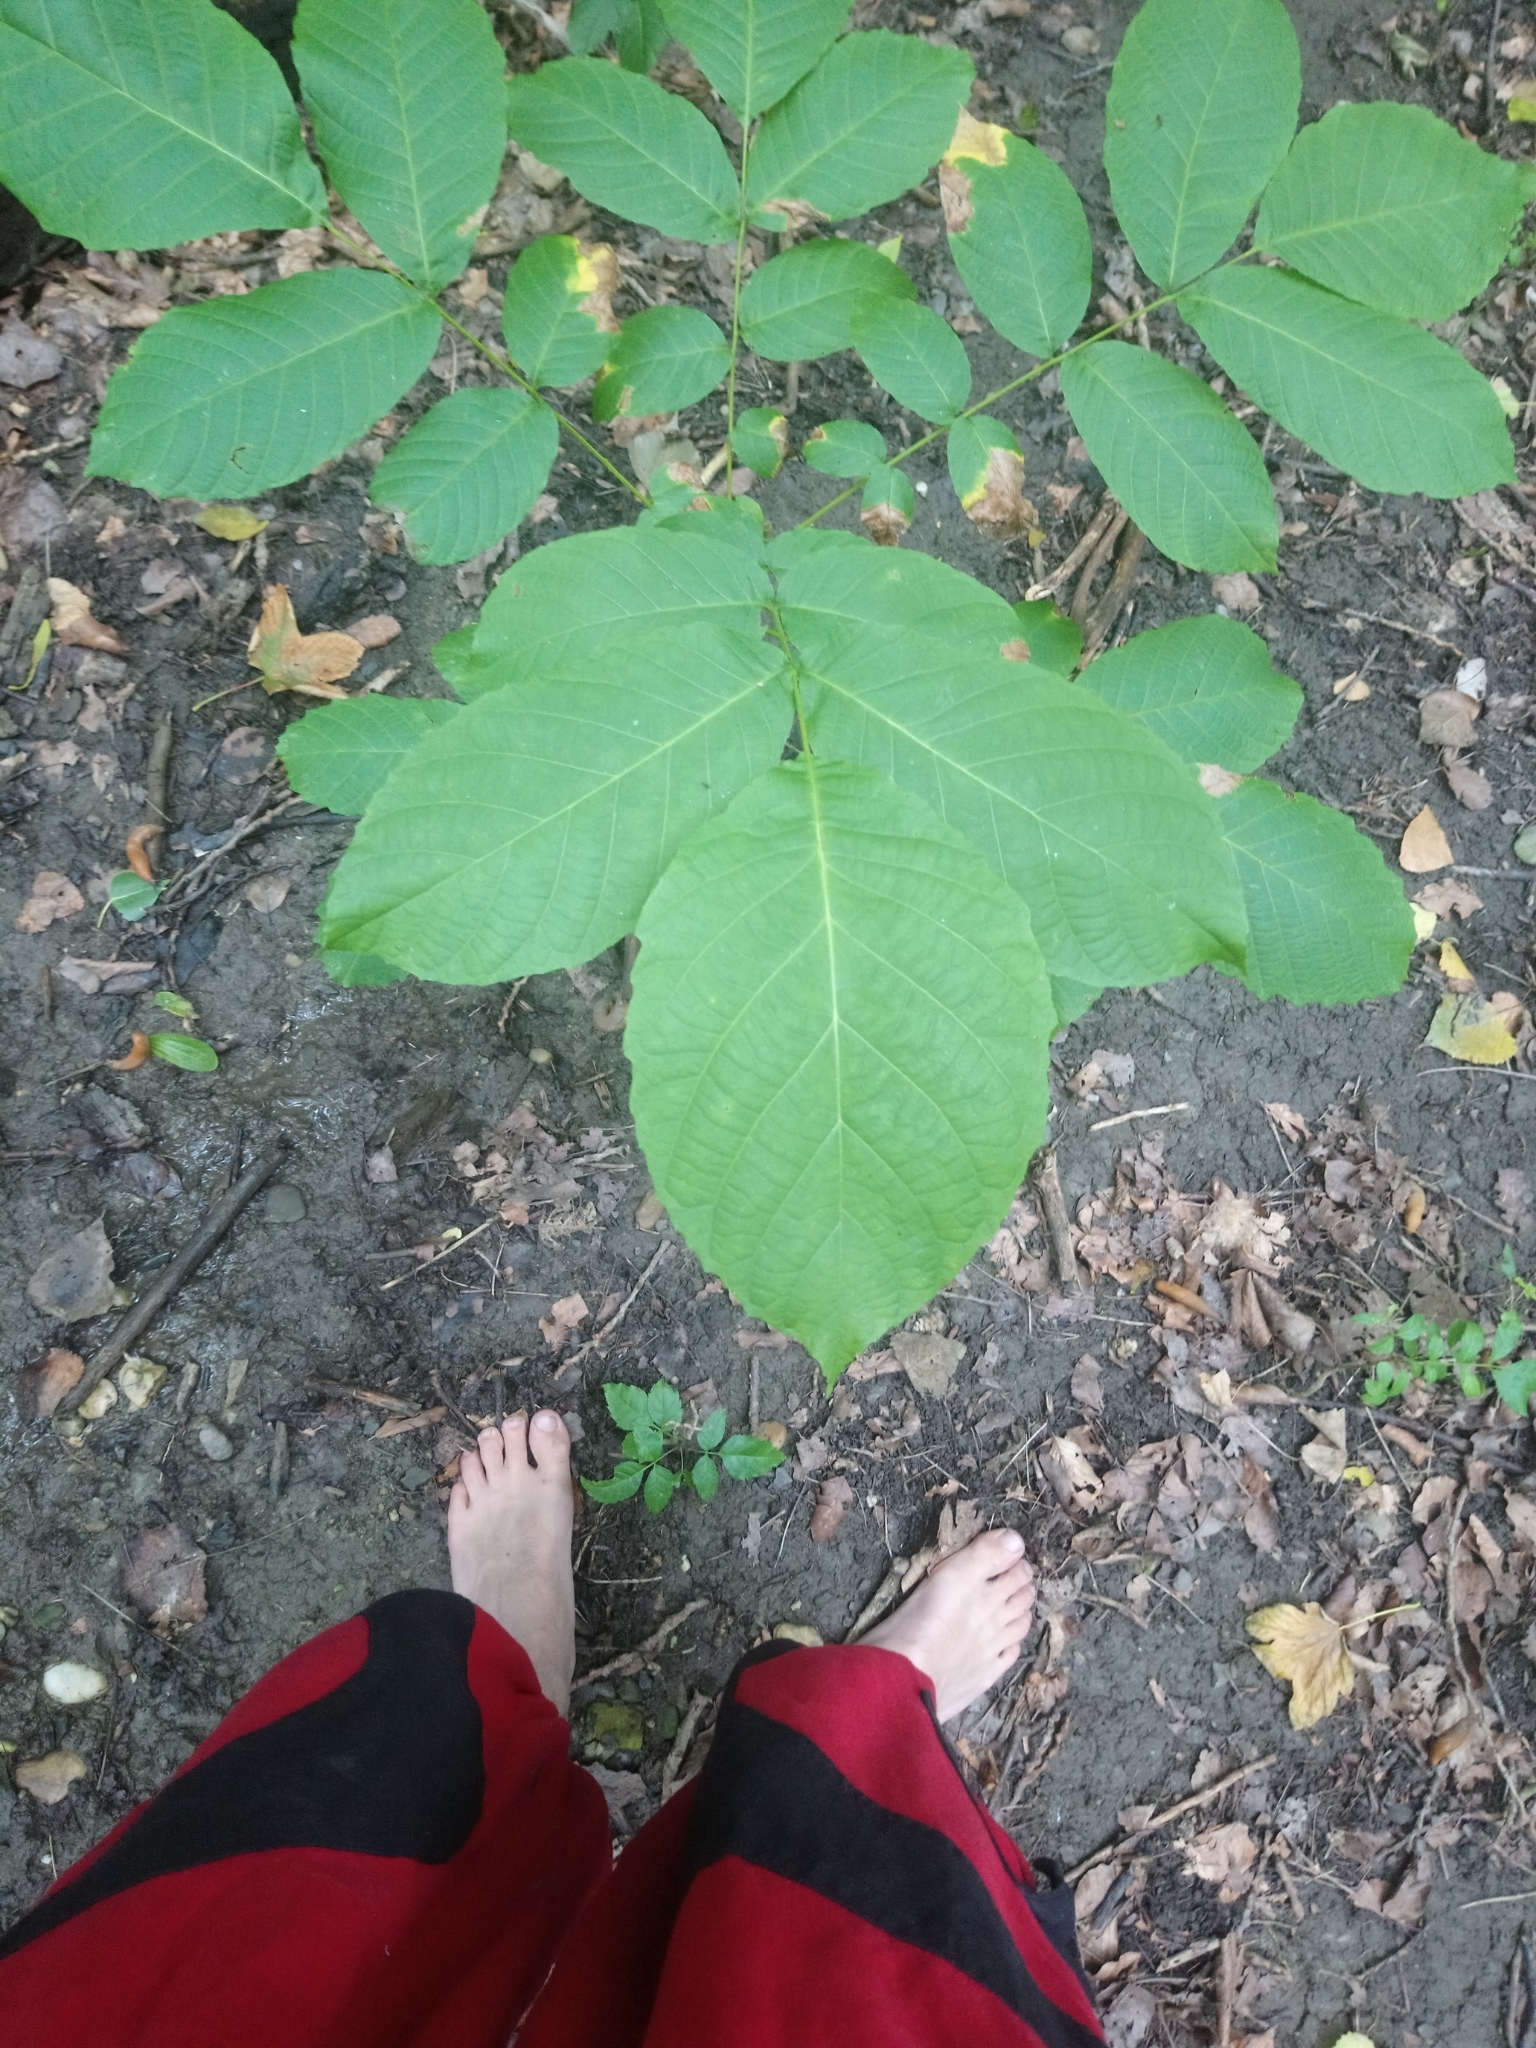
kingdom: Plantae
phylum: Tracheophyta
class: Magnoliopsida
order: Fagales
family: Juglandaceae
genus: Juglans
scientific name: Juglans regia
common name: Walnut
